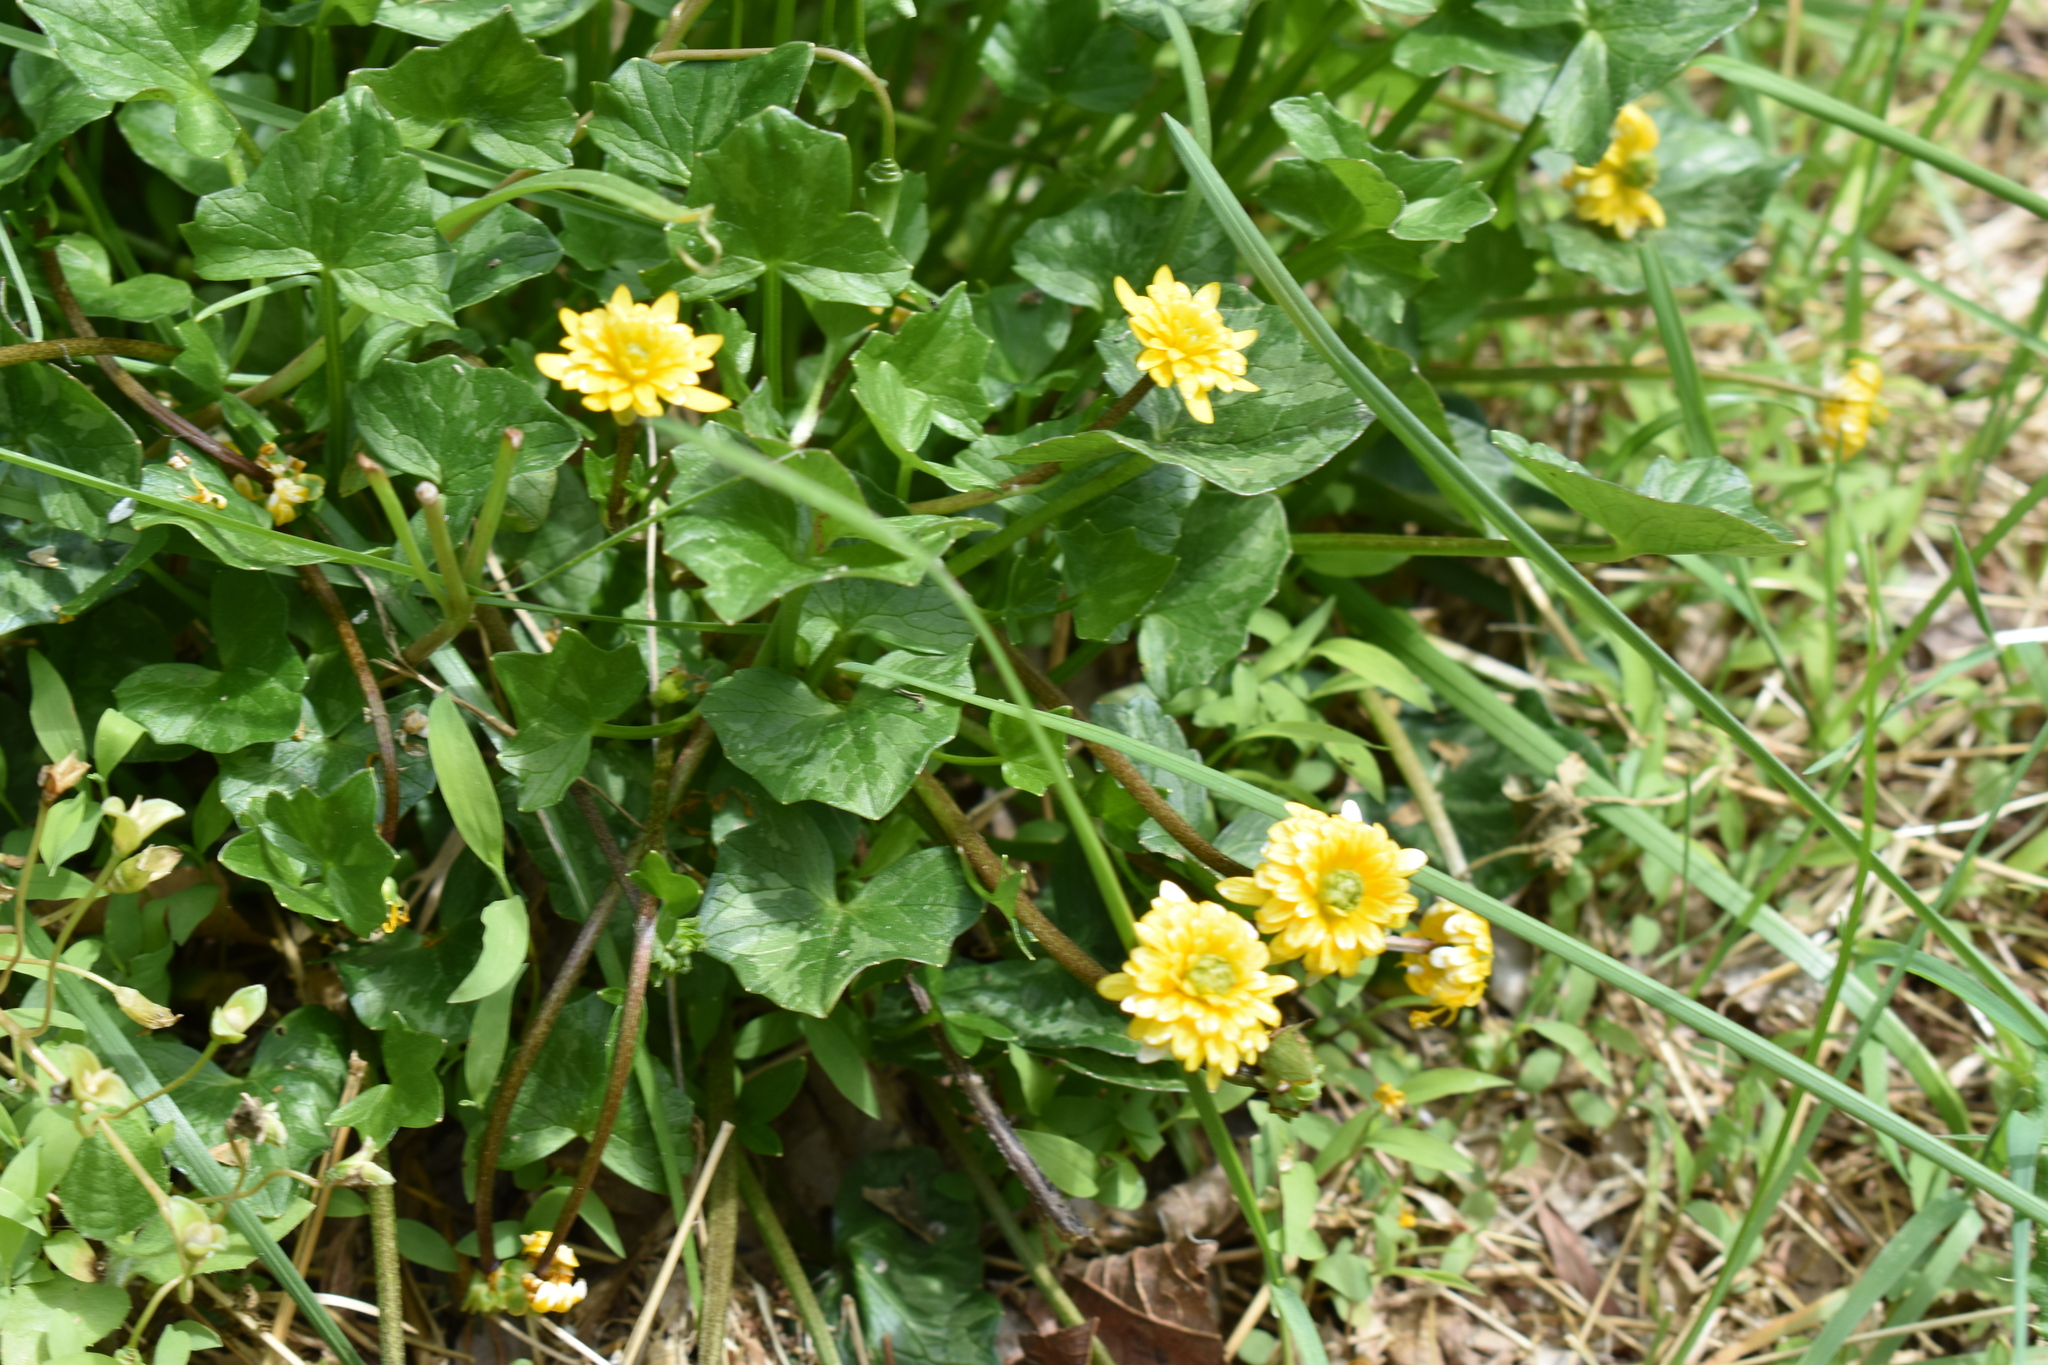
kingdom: Plantae
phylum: Tracheophyta
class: Magnoliopsida
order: Ranunculales
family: Ranunculaceae
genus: Ficaria
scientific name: Ficaria verna
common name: Lesser celandine
